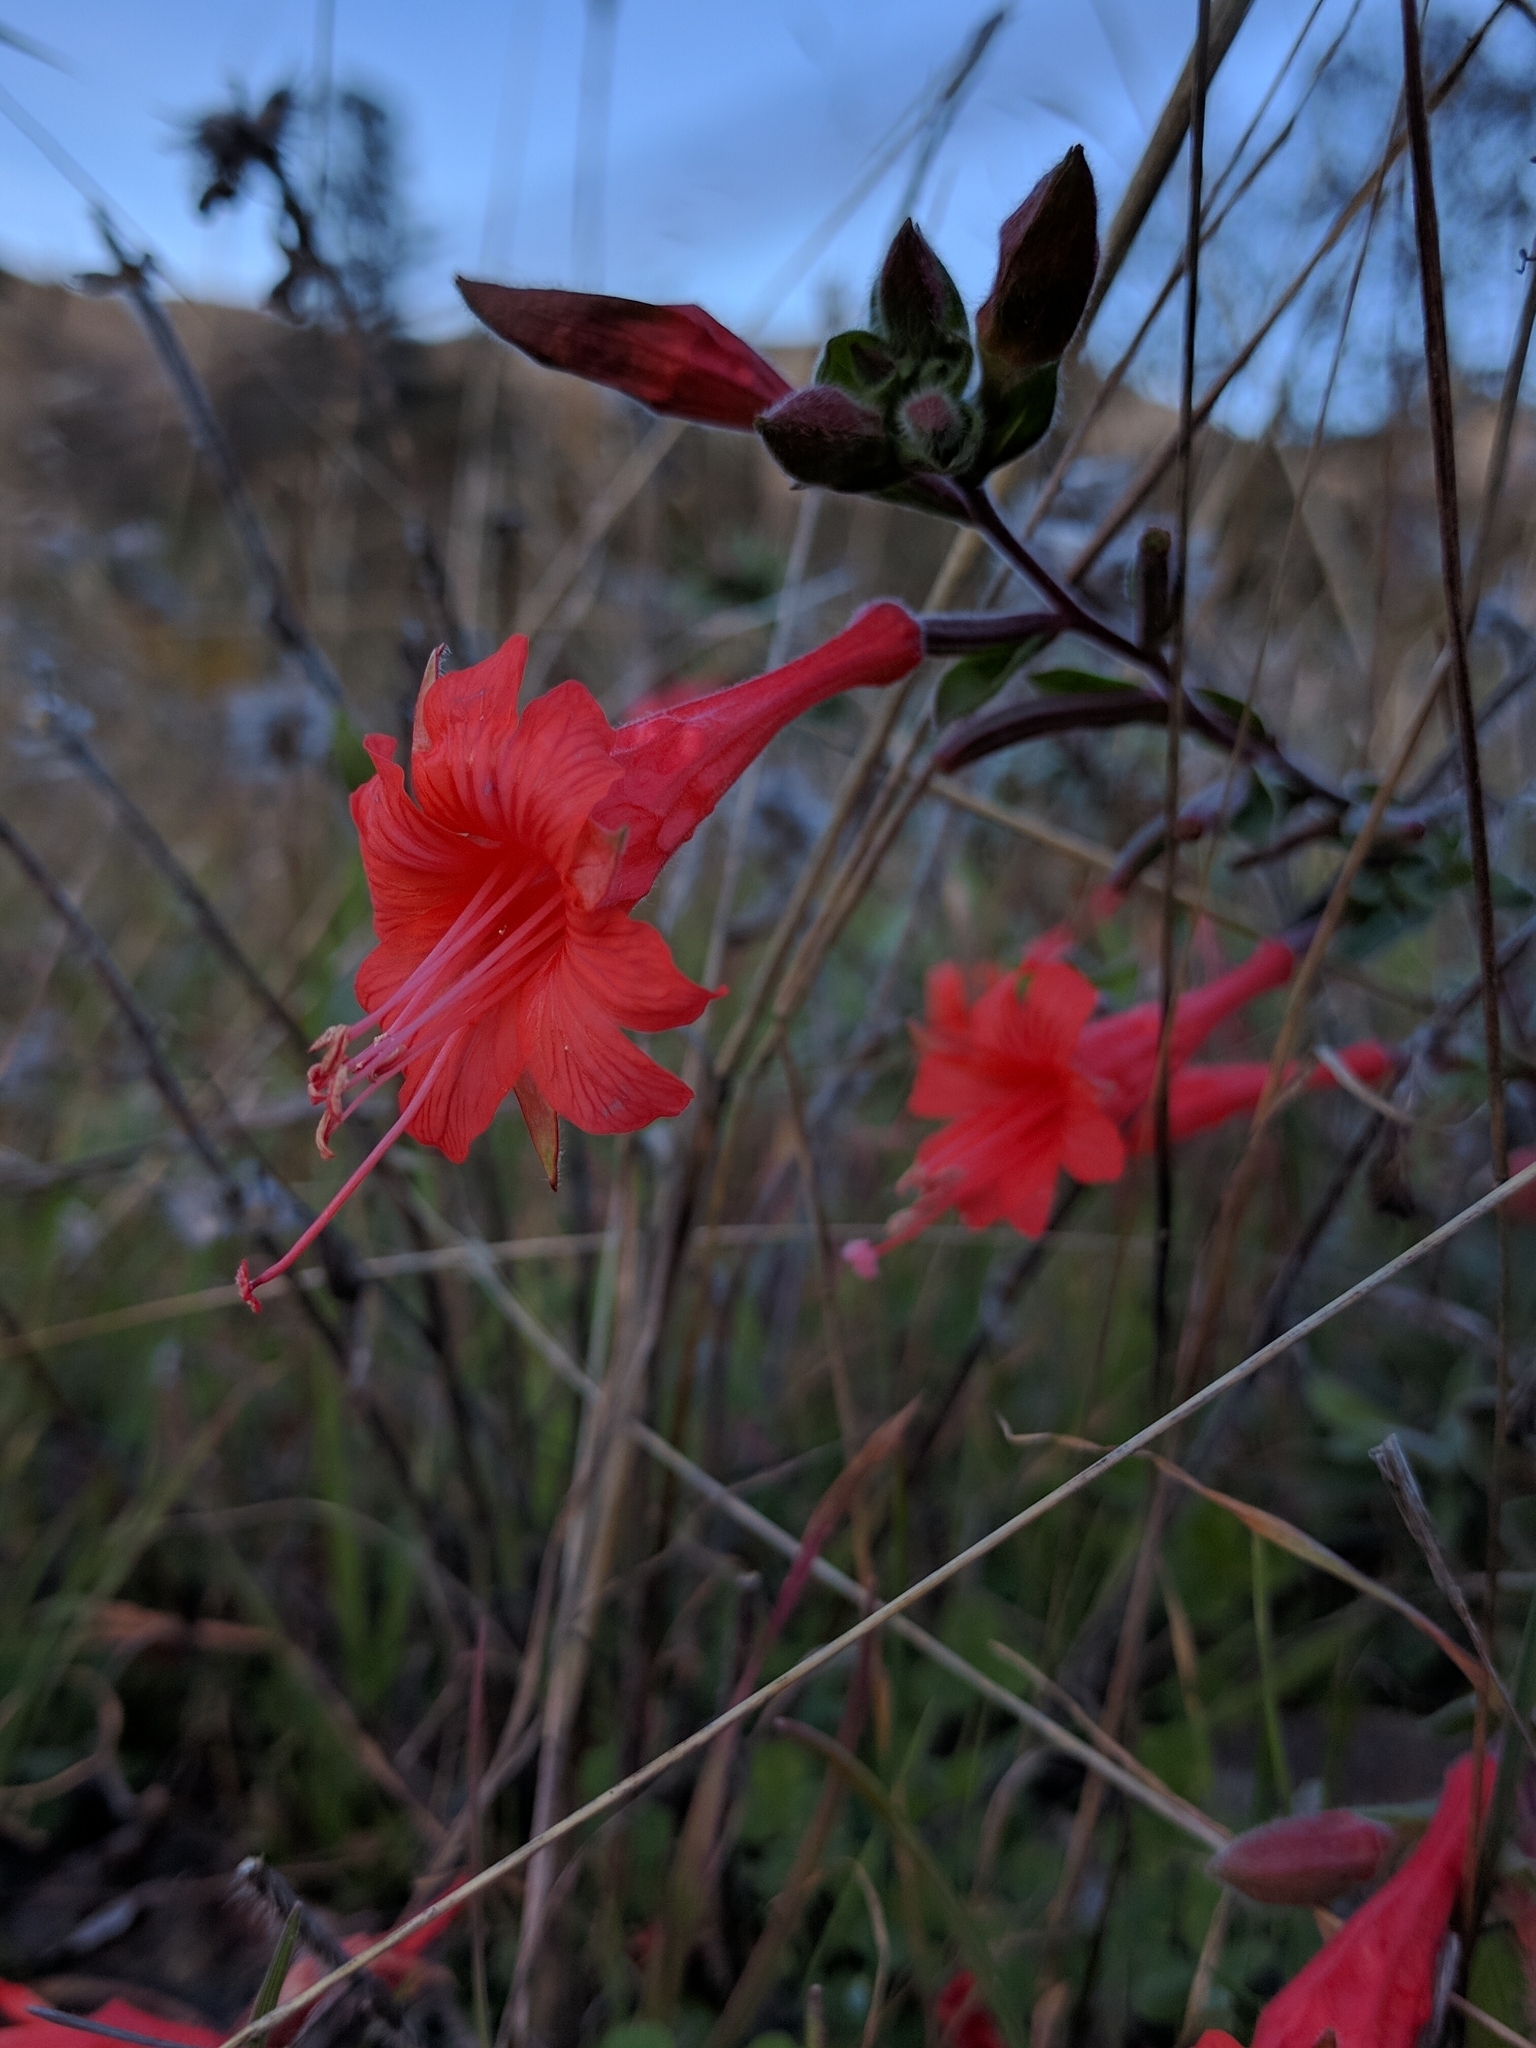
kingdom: Plantae
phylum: Tracheophyta
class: Magnoliopsida
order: Myrtales
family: Onagraceae
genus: Epilobium
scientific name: Epilobium canum
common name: California-fuchsia
